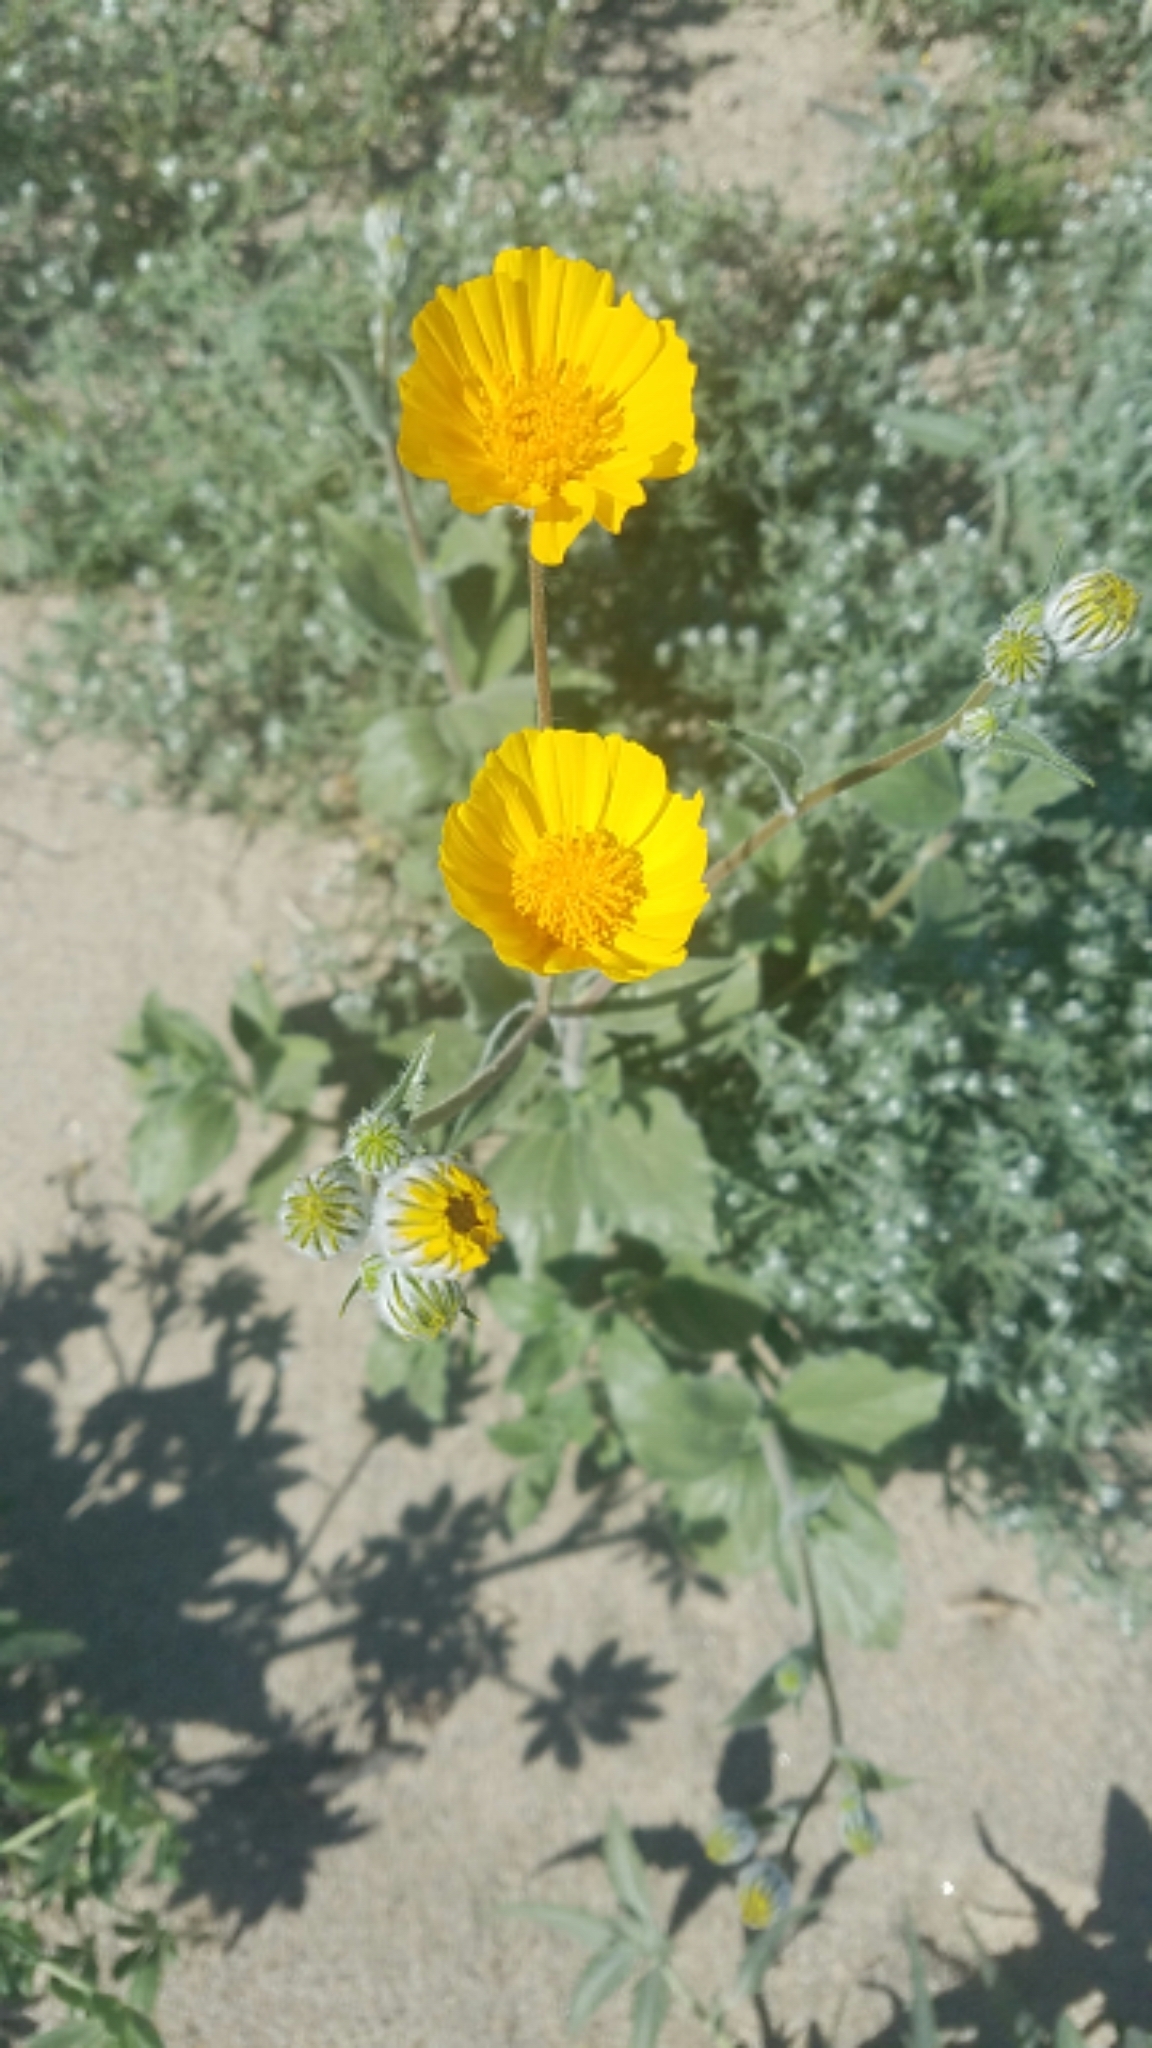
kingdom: Plantae
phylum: Tracheophyta
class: Magnoliopsida
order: Asterales
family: Asteraceae
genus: Geraea
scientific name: Geraea canescens
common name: Desert-gold
